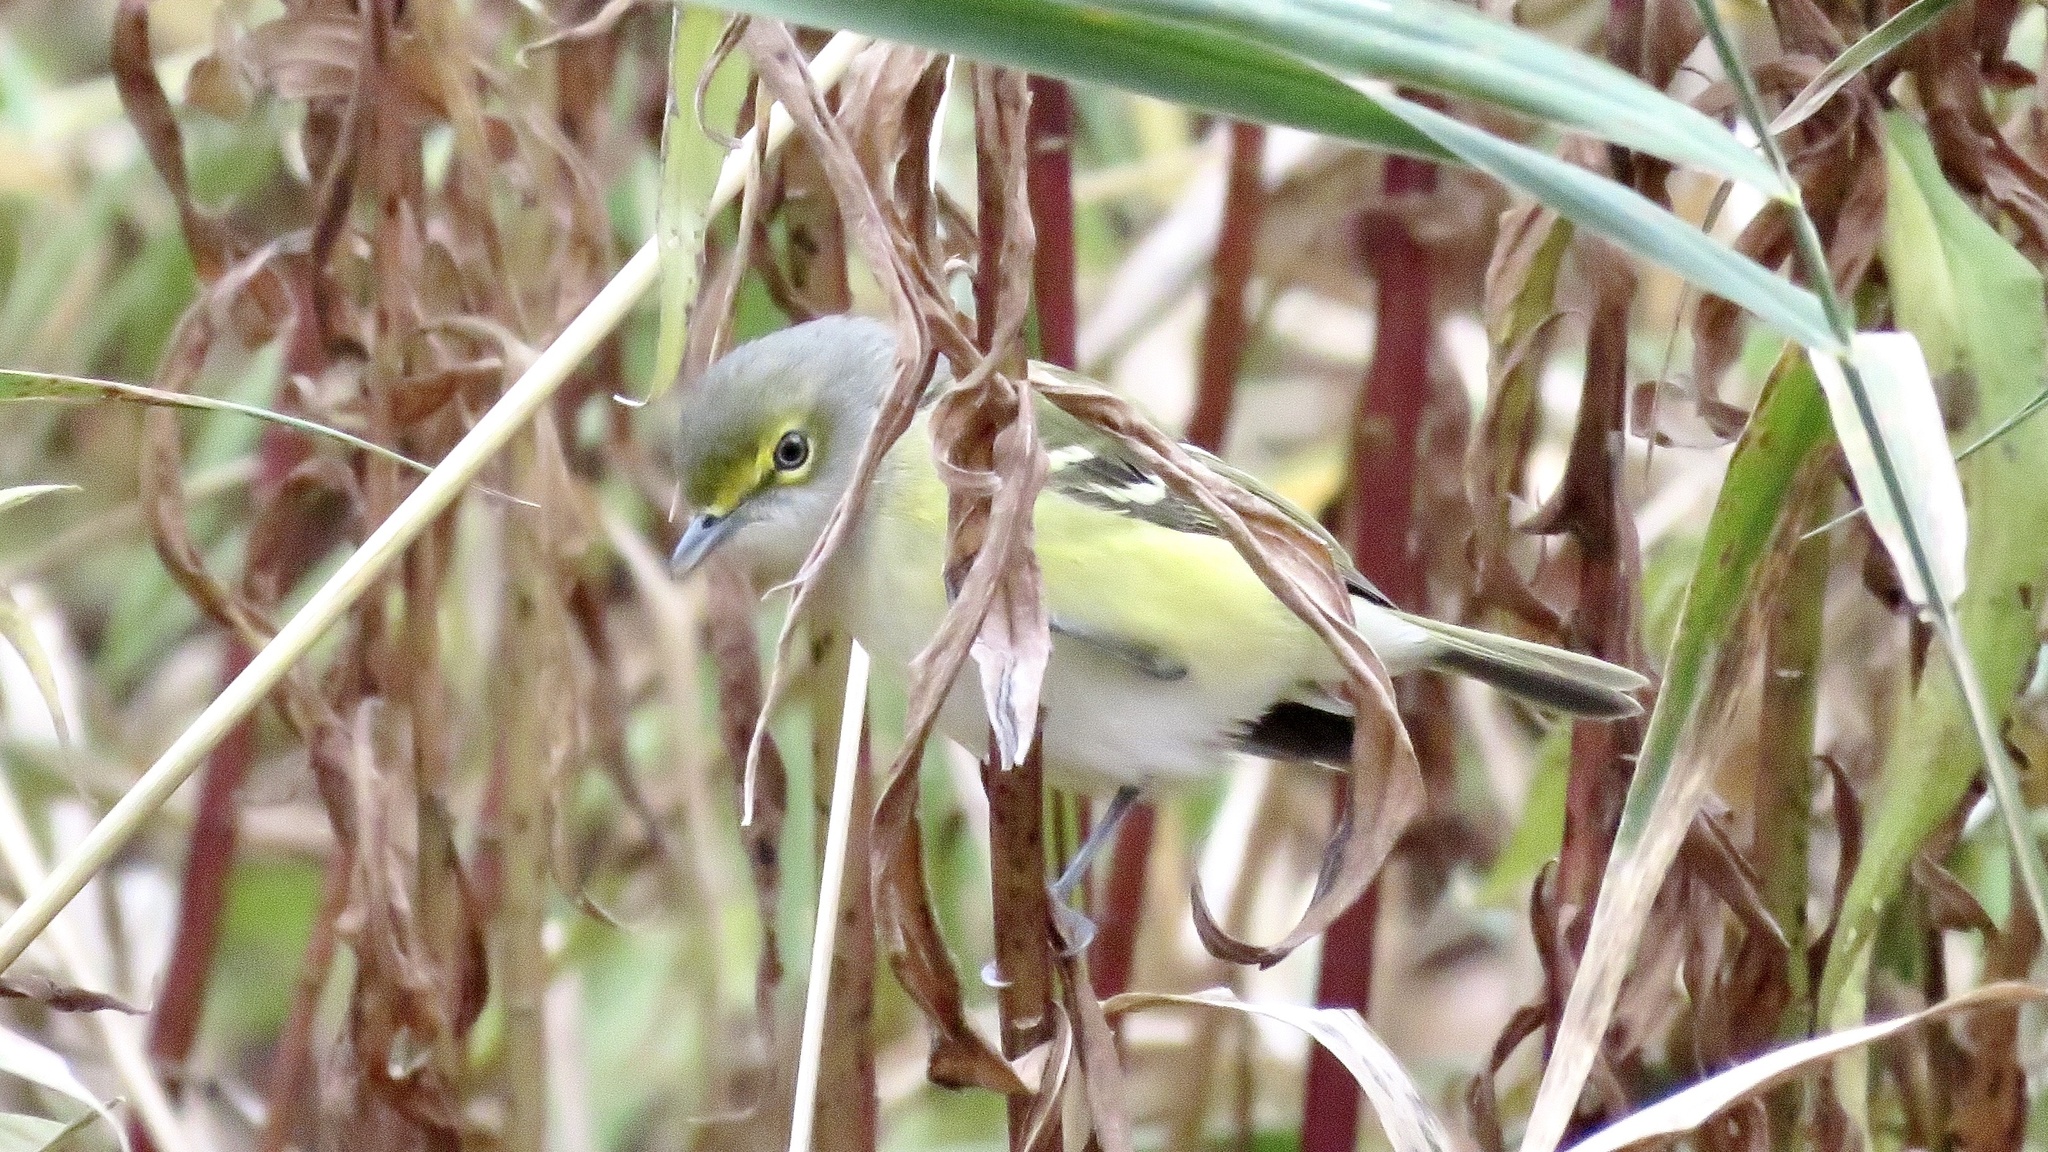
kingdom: Animalia
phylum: Chordata
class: Aves
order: Passeriformes
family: Vireonidae
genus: Vireo
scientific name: Vireo griseus
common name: White-eyed vireo
